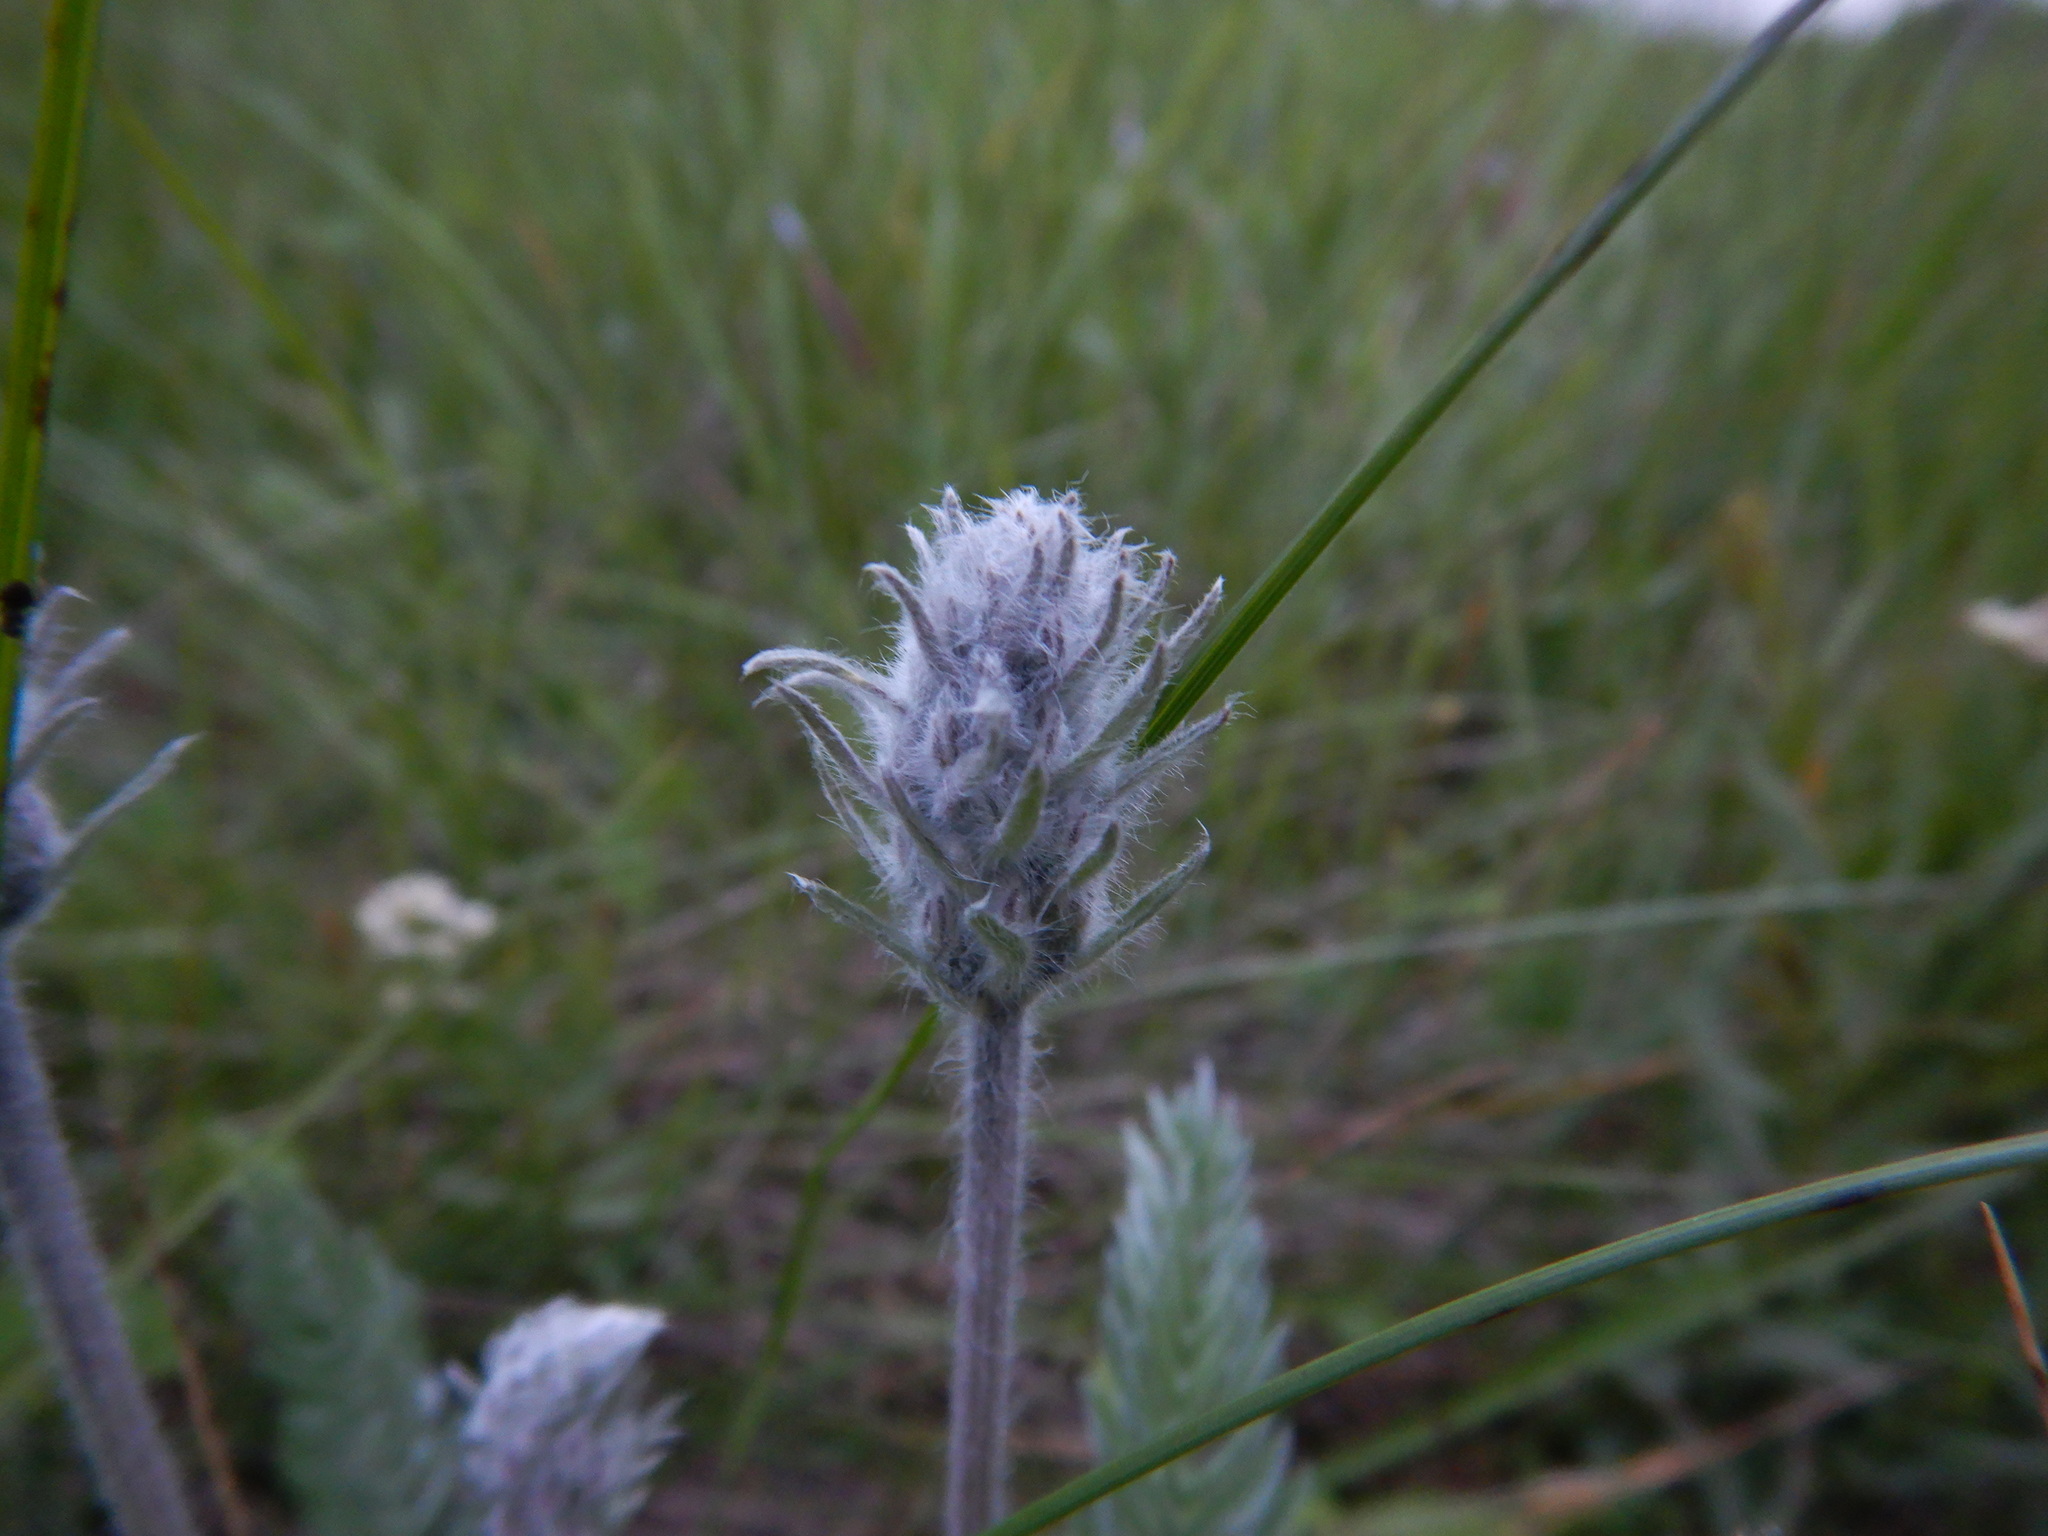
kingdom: Plantae
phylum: Tracheophyta
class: Magnoliopsida
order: Fabales
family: Fabaceae
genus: Oxytropis
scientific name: Oxytropis splendens
